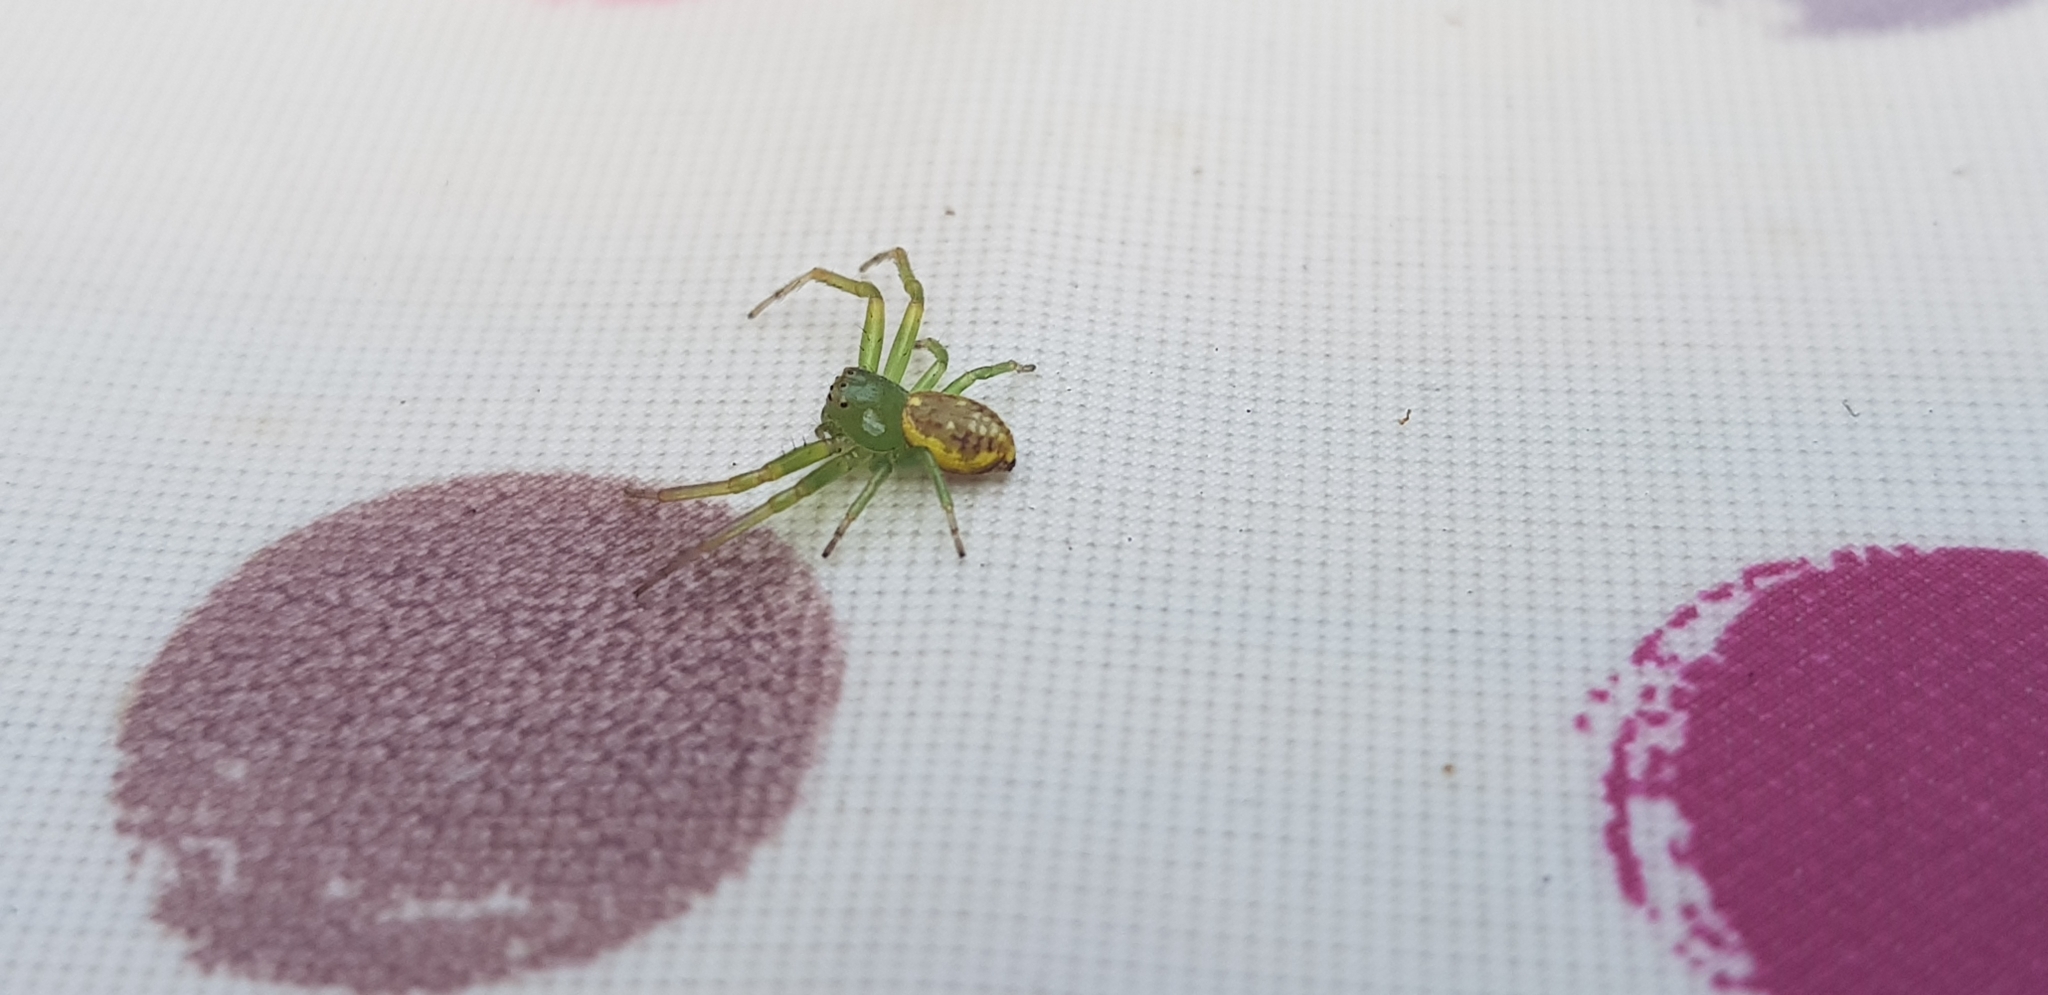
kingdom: Animalia
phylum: Arthropoda
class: Arachnida
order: Araneae
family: Thomisidae
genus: Diaea
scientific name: Diaea ambara
